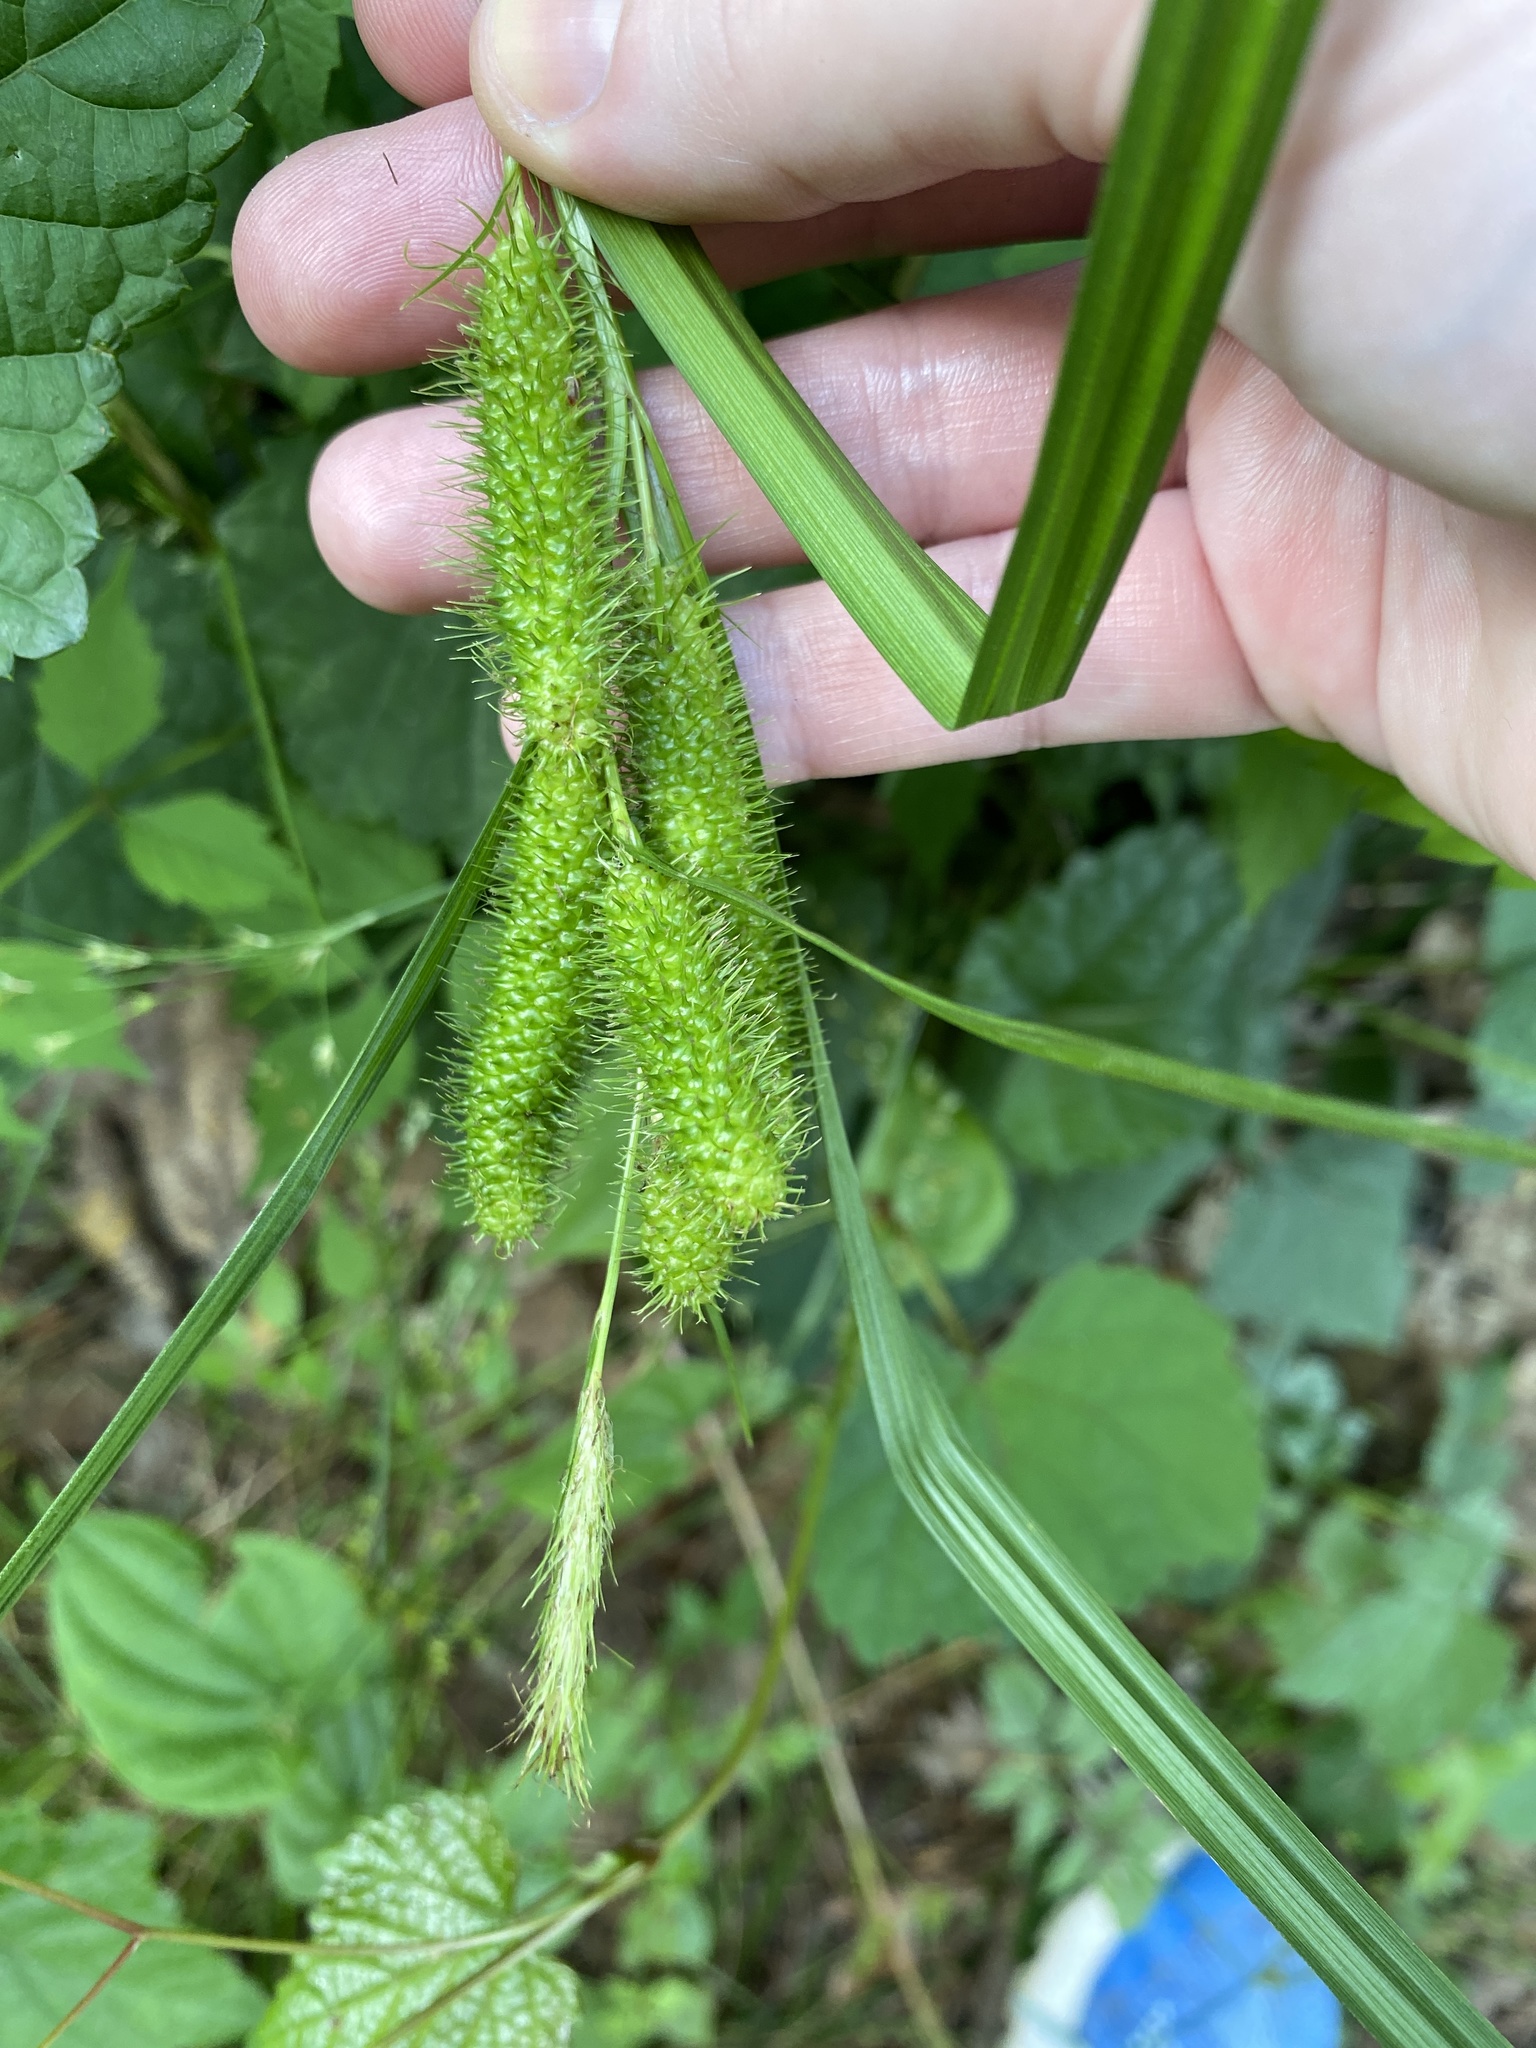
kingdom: Plantae
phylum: Tracheophyta
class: Liliopsida
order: Poales
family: Cyperaceae
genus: Carex
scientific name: Carex frankii
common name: Frank's sedge
